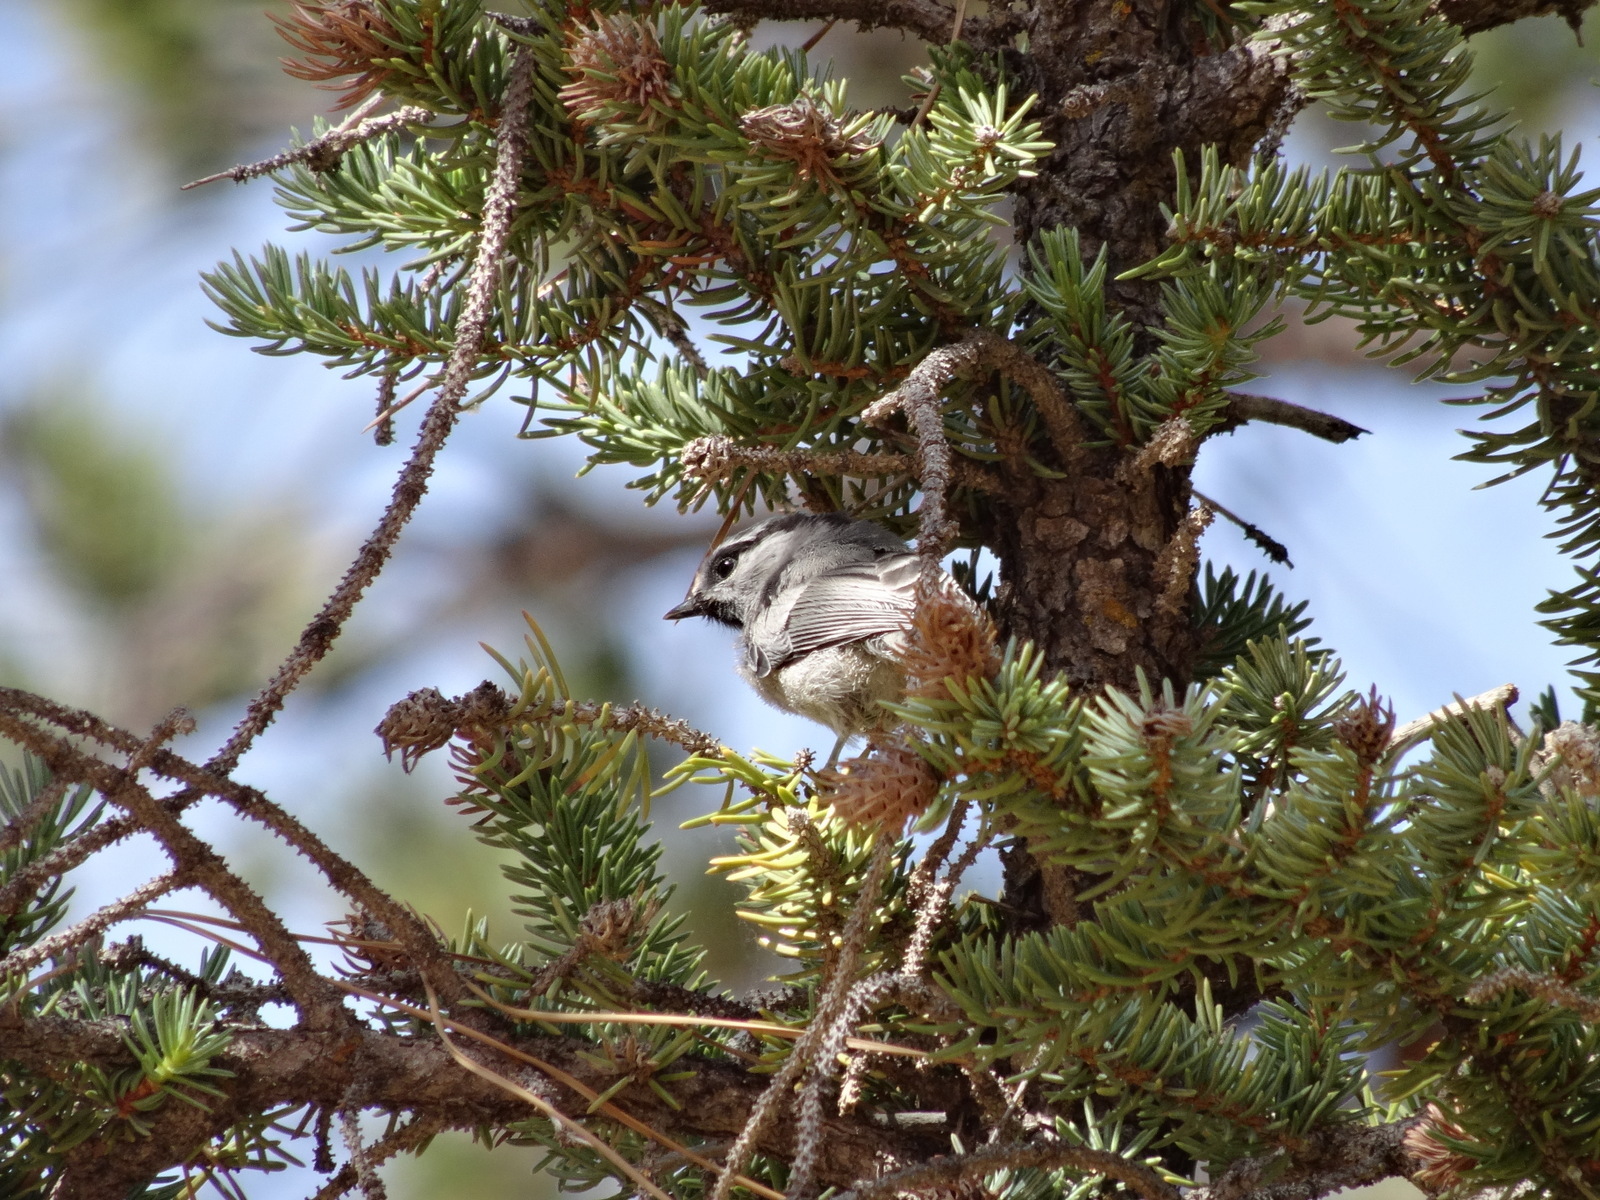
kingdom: Animalia
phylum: Chordata
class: Aves
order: Passeriformes
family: Paridae
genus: Poecile
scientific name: Poecile gambeli
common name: Mountain chickadee
